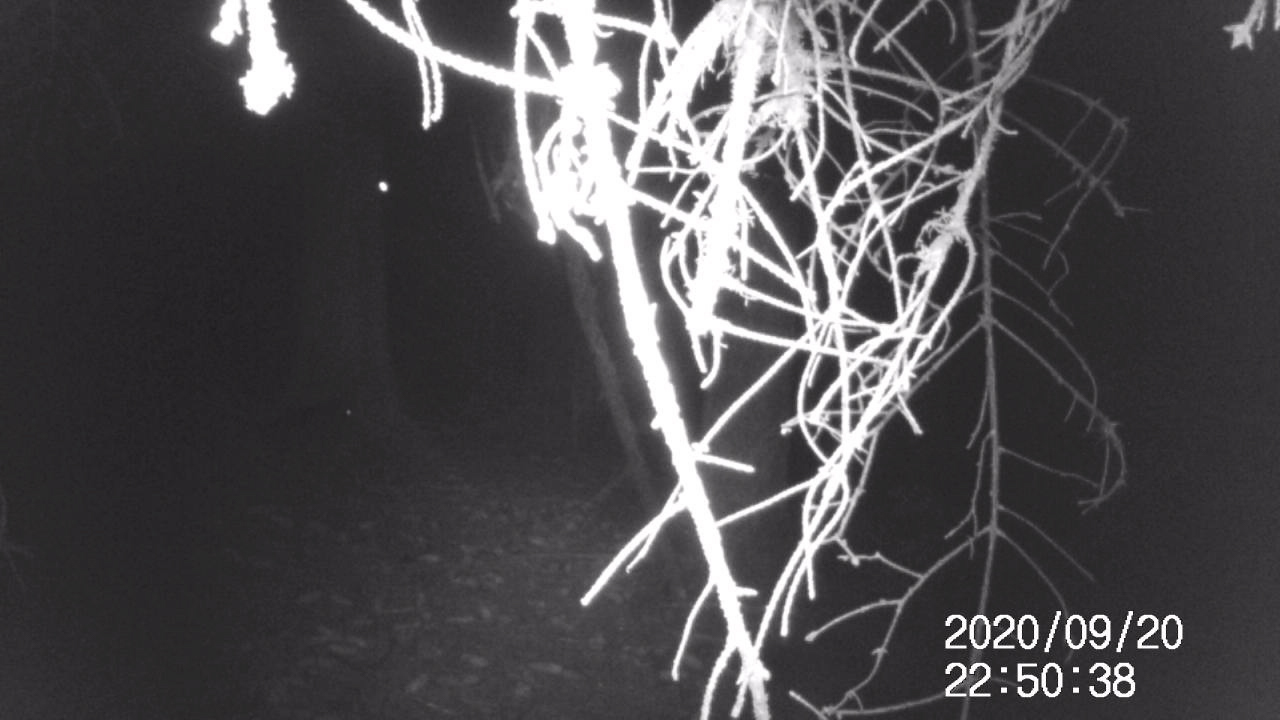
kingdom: Animalia
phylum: Chordata
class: Mammalia
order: Carnivora
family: Procyonidae
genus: Procyon
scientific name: Procyon lotor
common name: Raccoon
